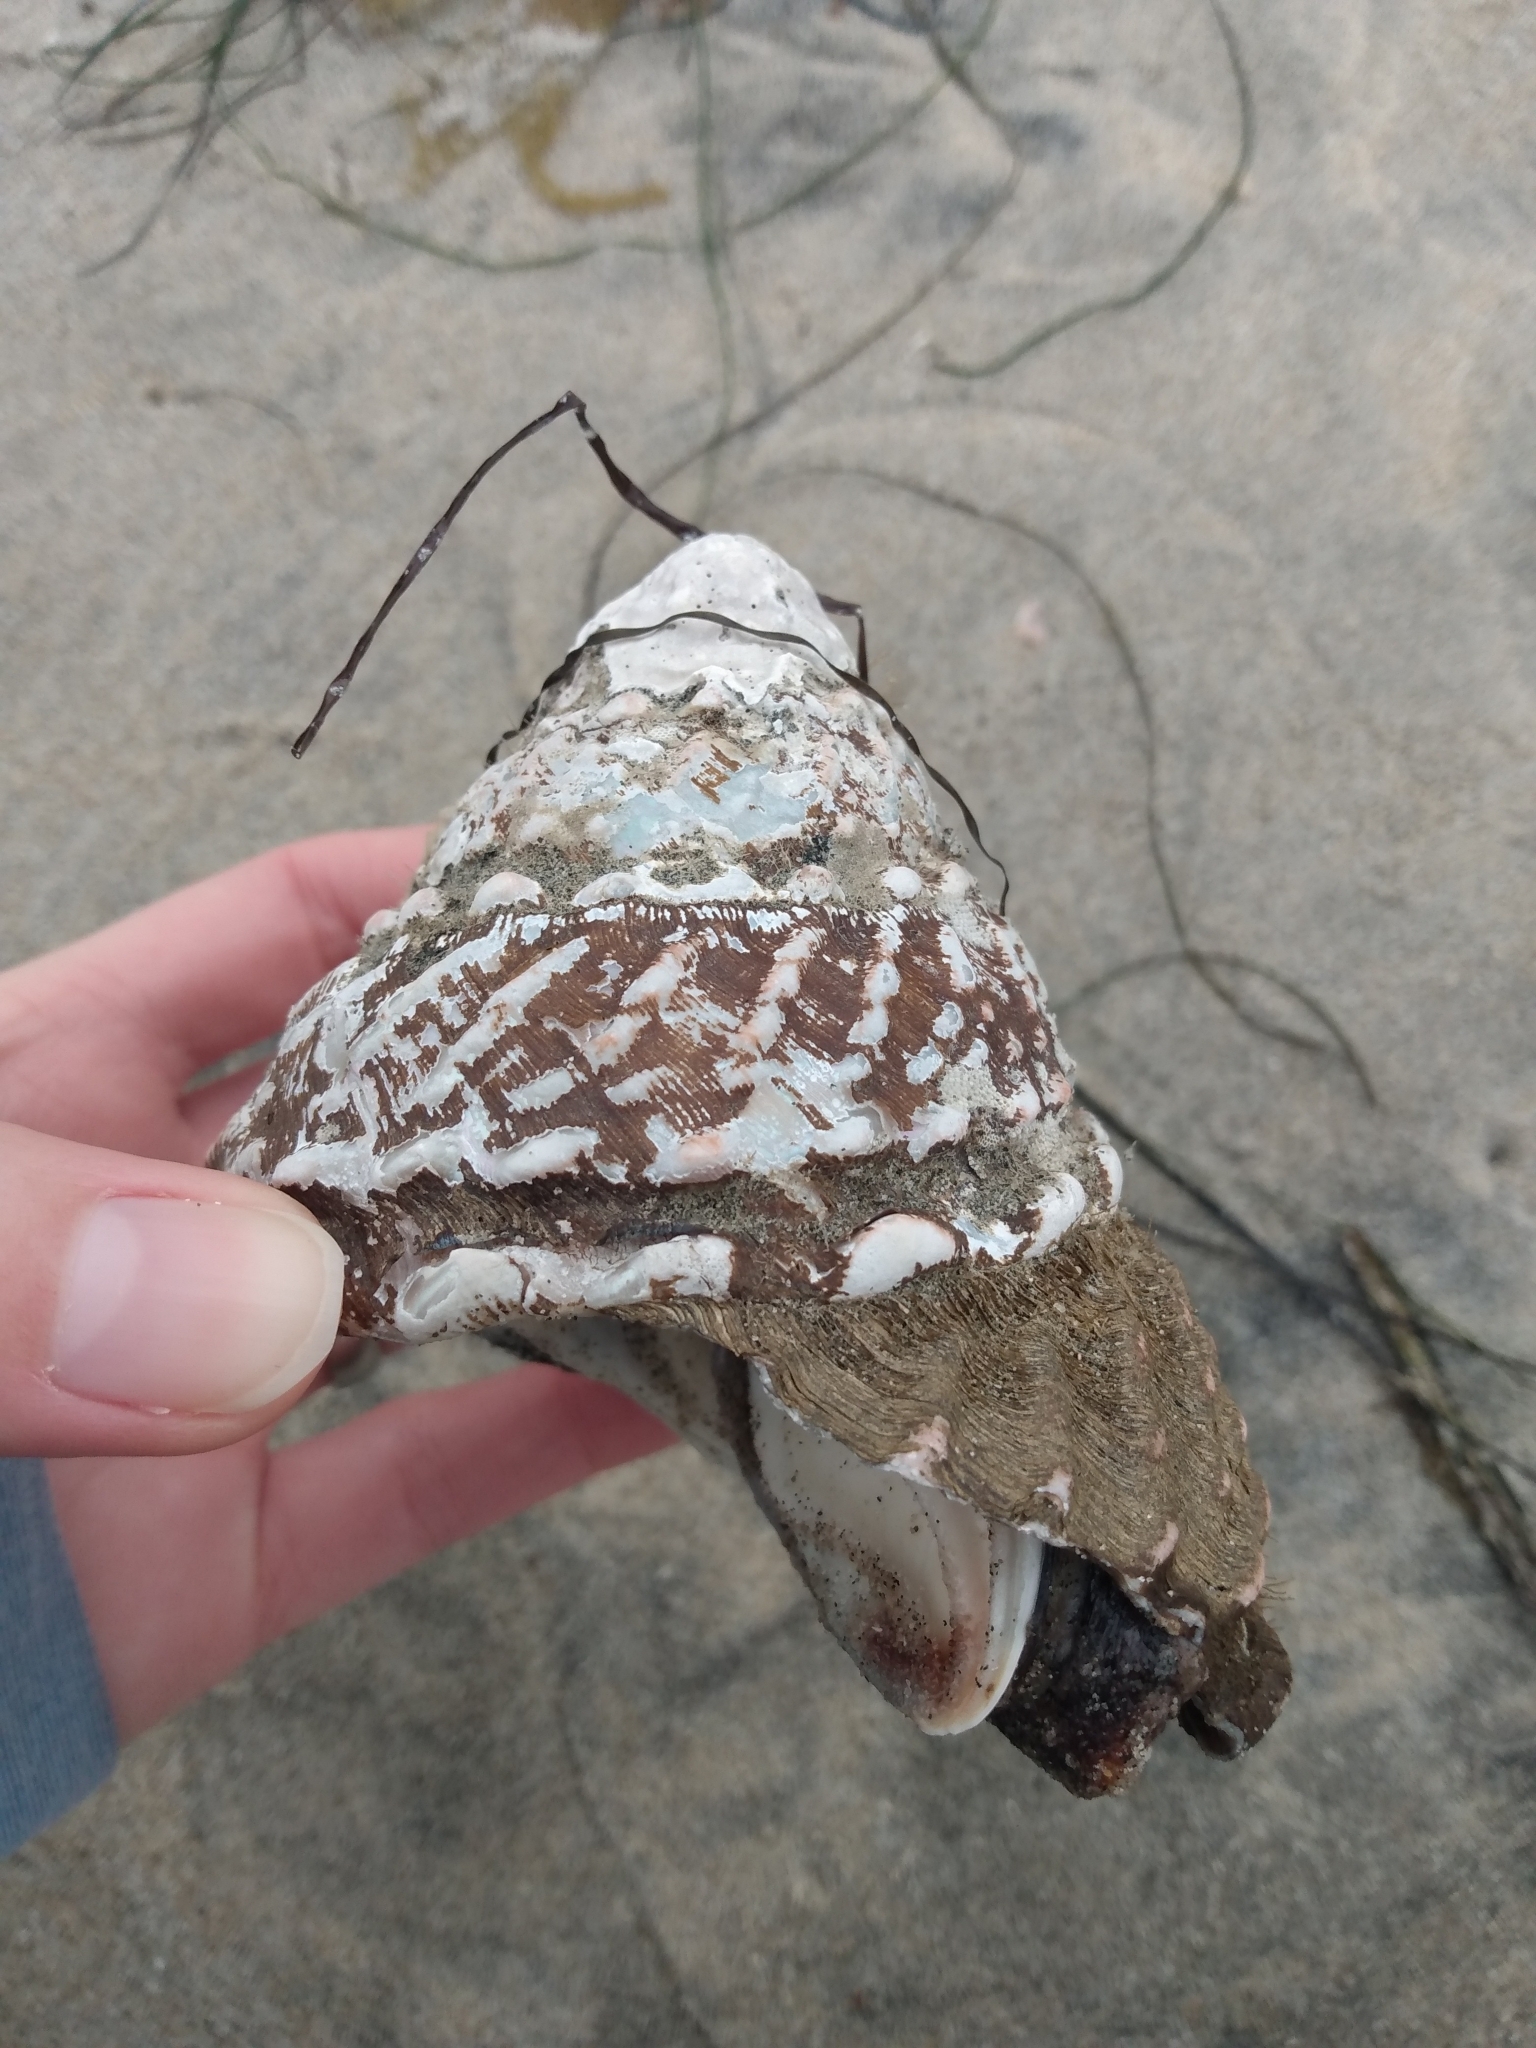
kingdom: Animalia
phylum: Mollusca
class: Gastropoda
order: Trochida
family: Turbinidae
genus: Megastraea
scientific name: Megastraea undosa
